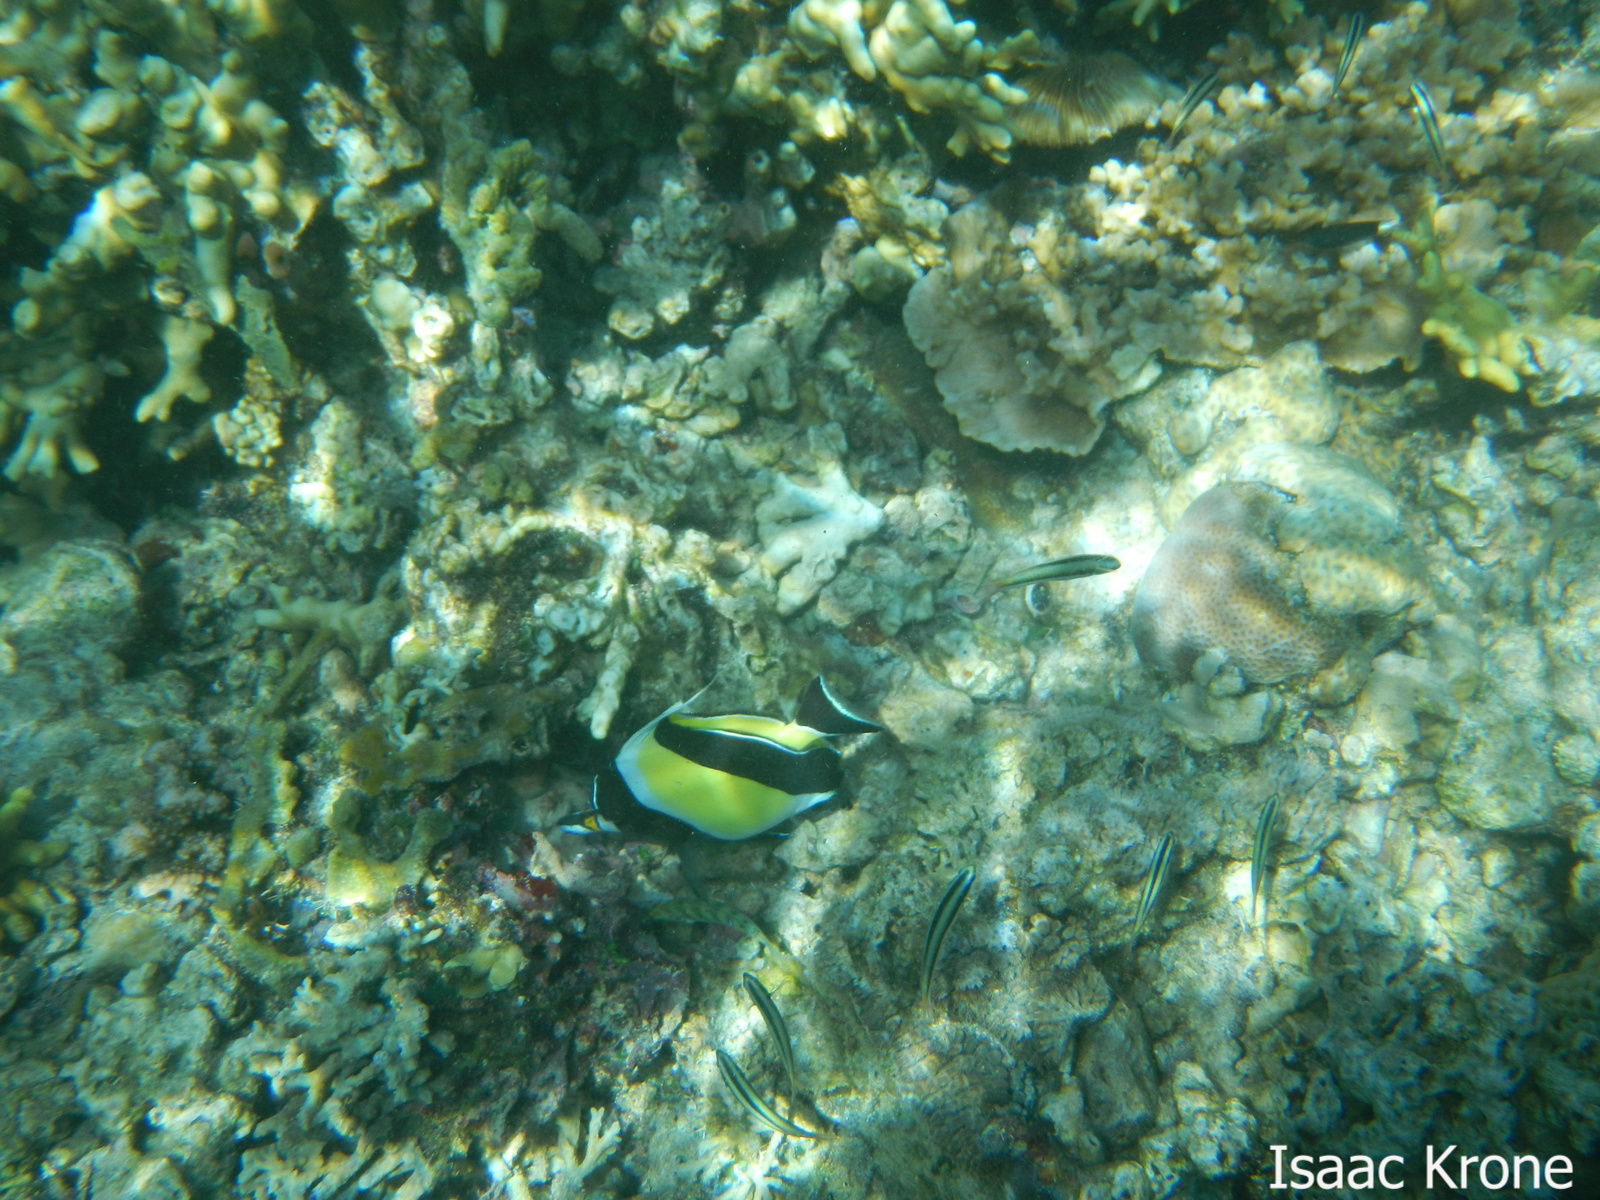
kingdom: Animalia
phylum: Chordata
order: Perciformes
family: Labridae
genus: Thalassoma
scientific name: Thalassoma amblycephalum
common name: Bluehead wrasse
